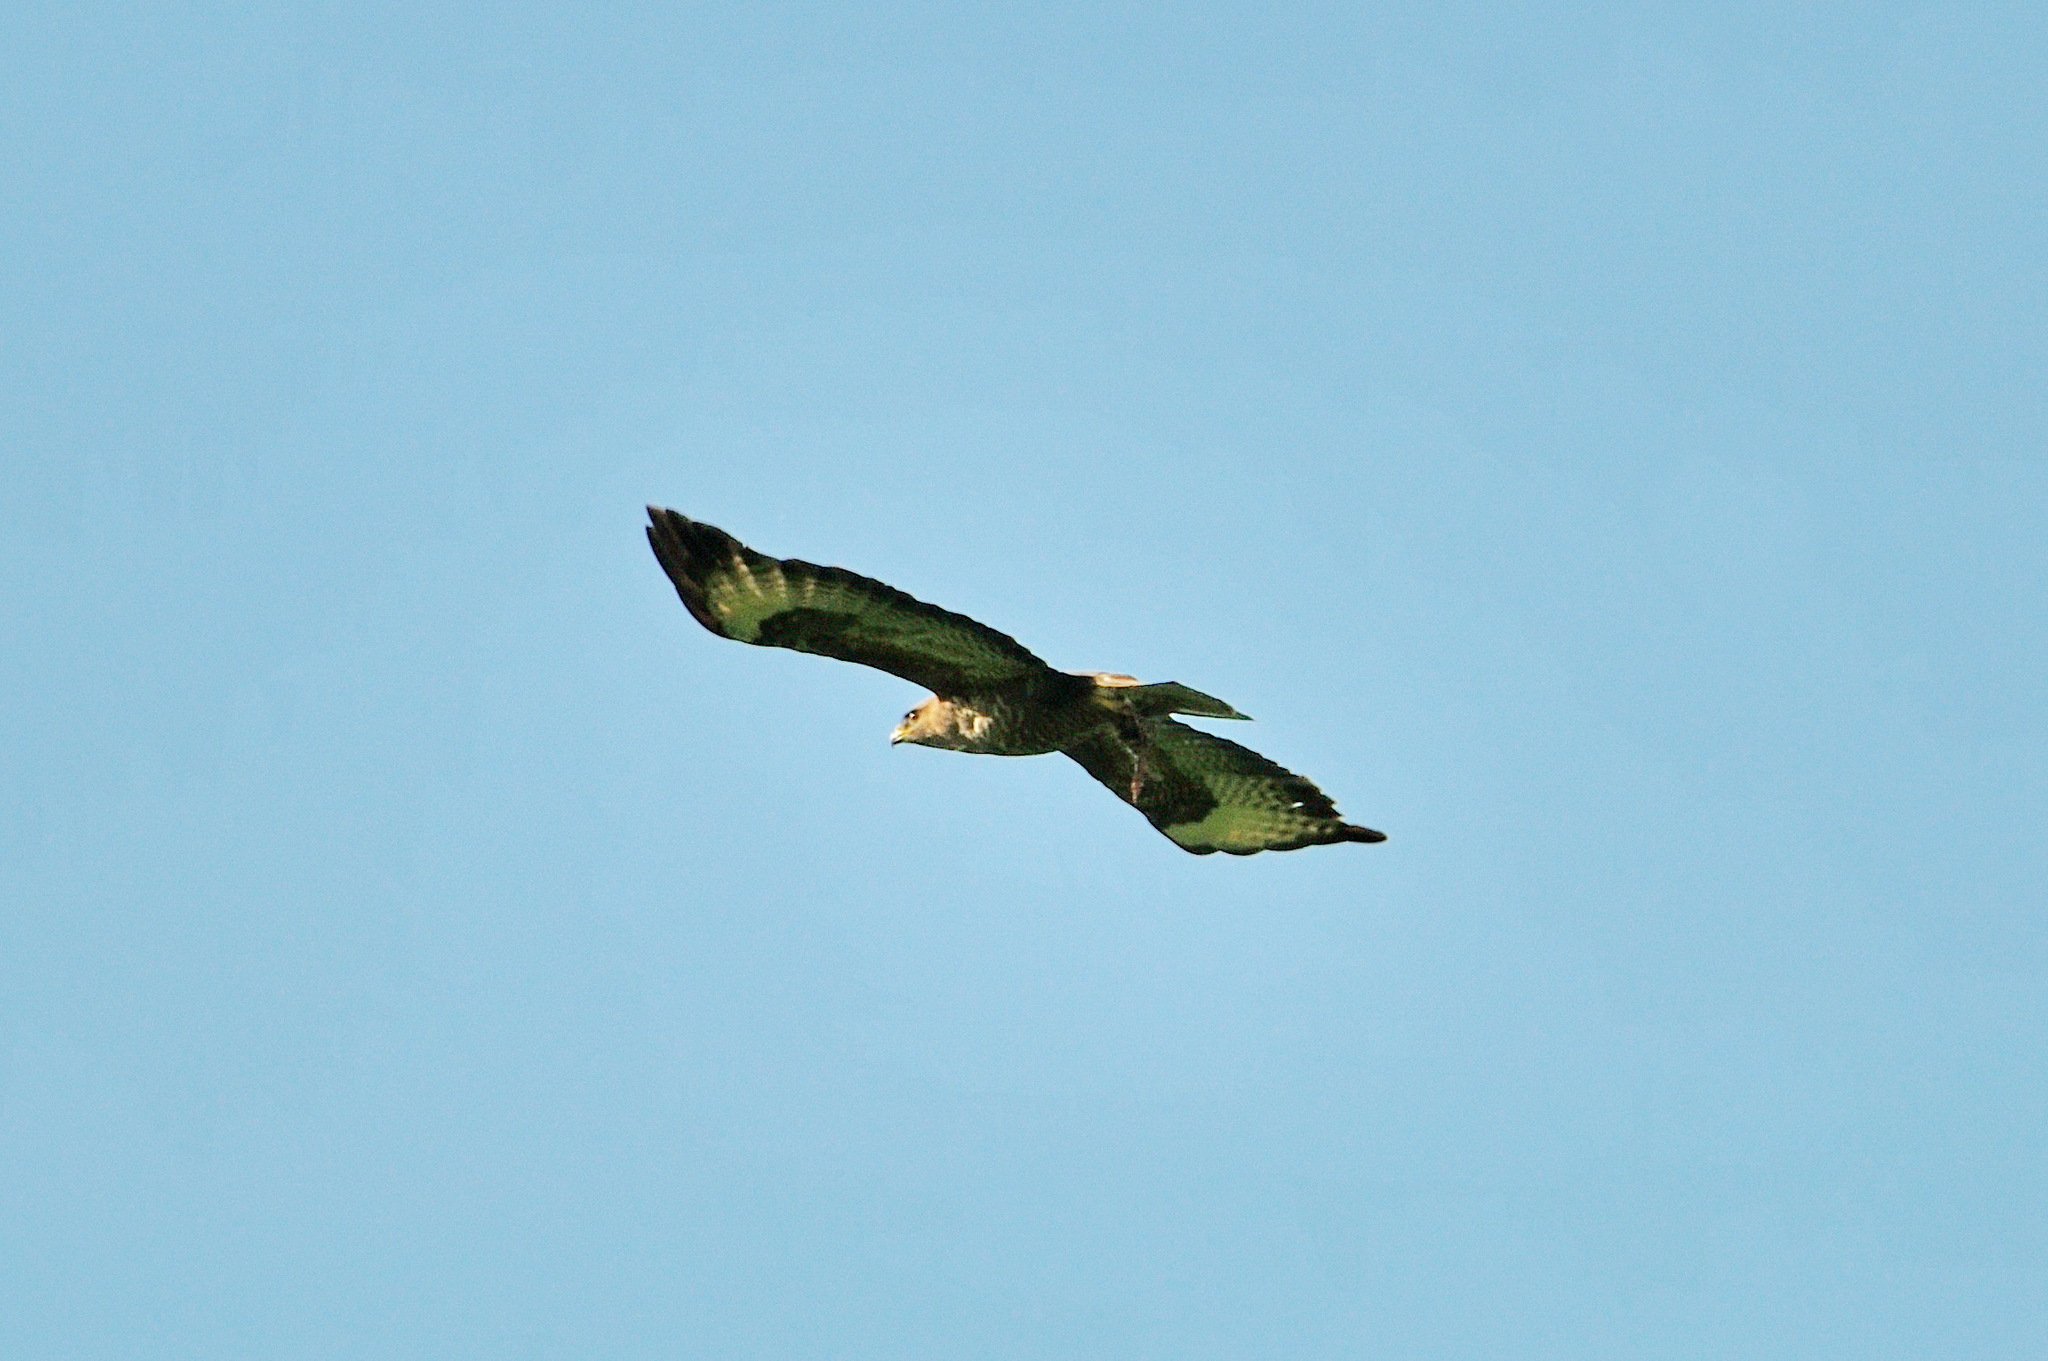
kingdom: Animalia
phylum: Chordata
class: Aves
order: Accipitriformes
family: Accipitridae
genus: Buteo
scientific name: Buteo buteo
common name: Common buzzard
